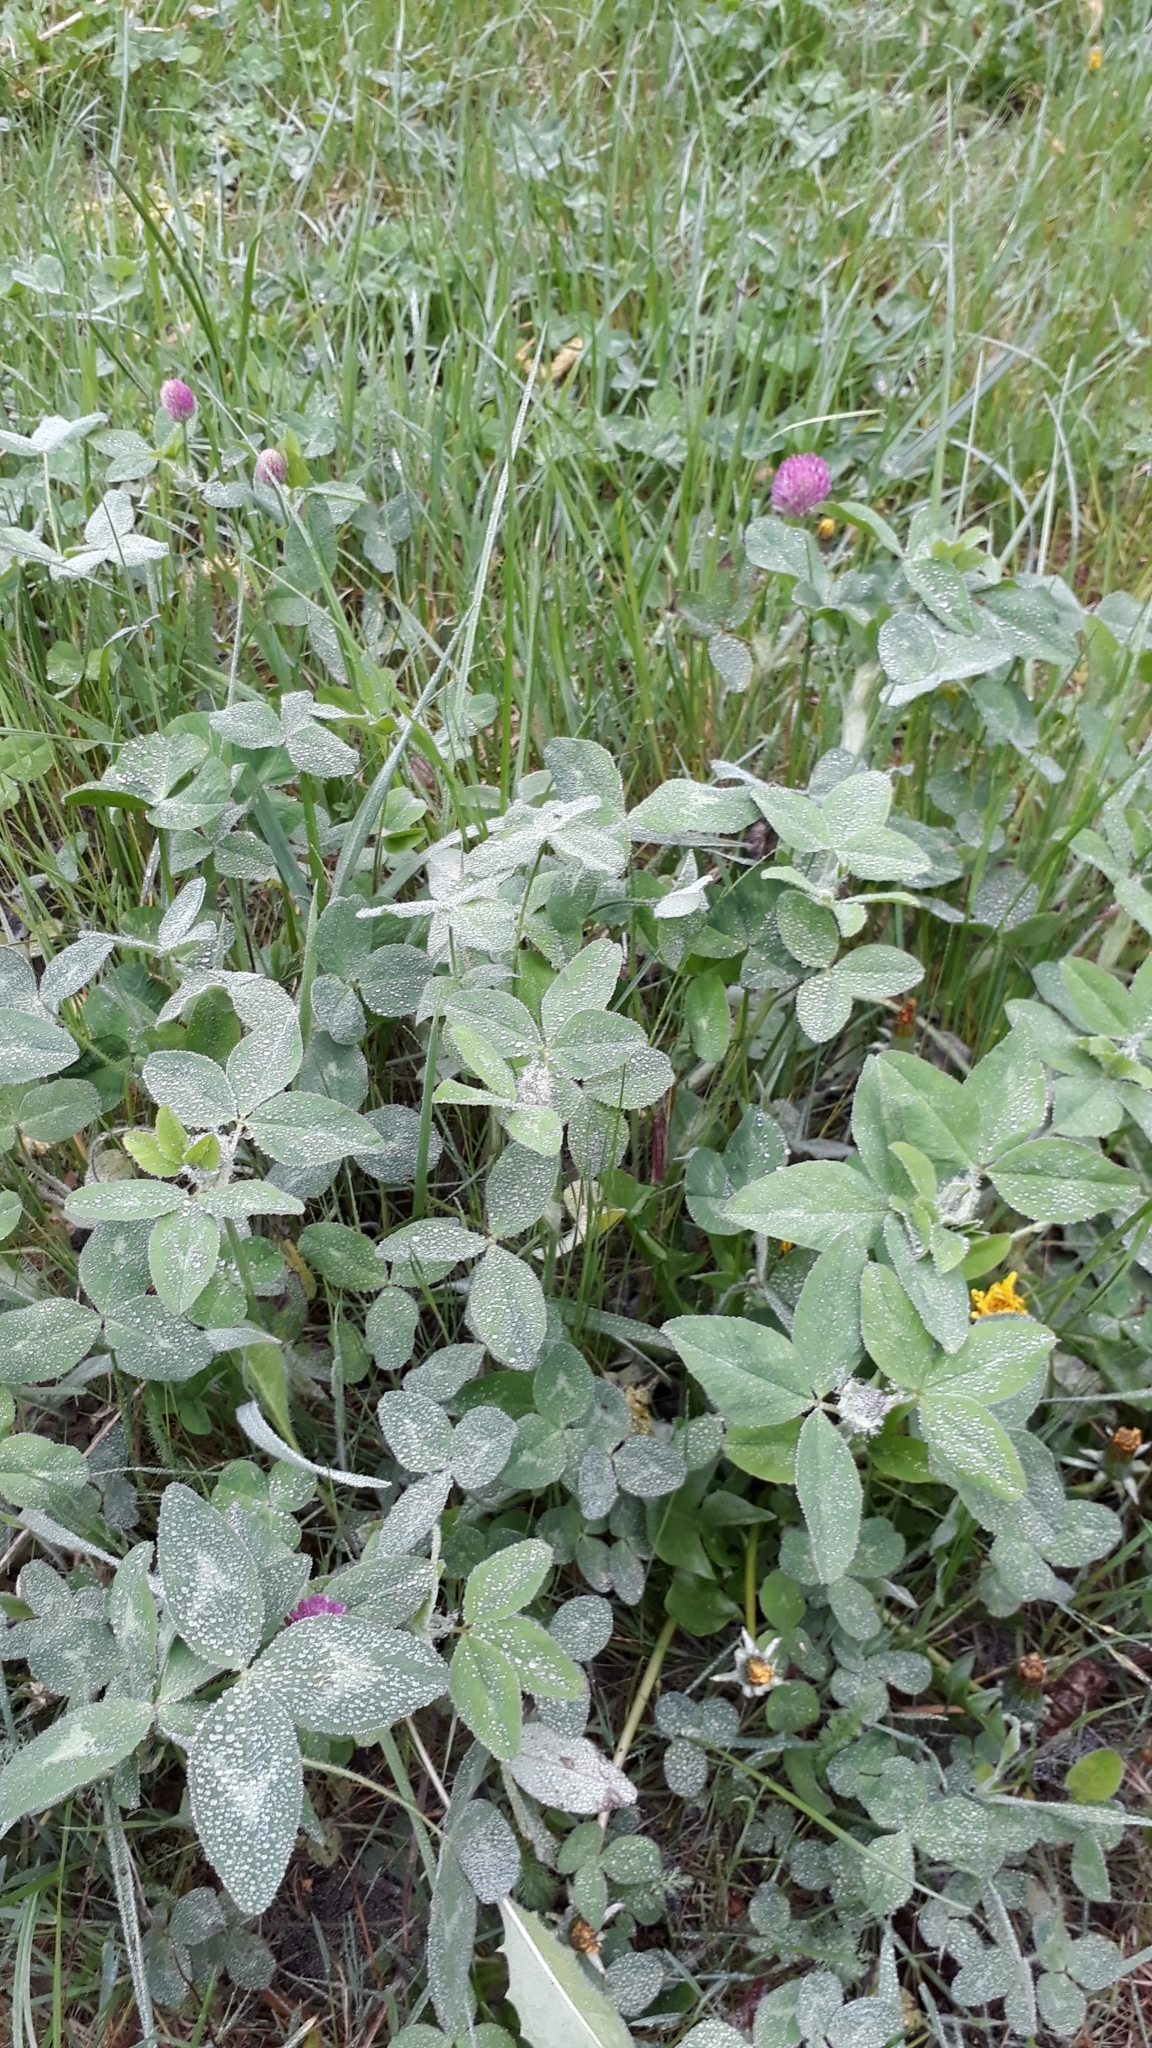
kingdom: Plantae
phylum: Tracheophyta
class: Magnoliopsida
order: Fabales
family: Fabaceae
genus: Trifolium
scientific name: Trifolium pratense
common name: Red clover
